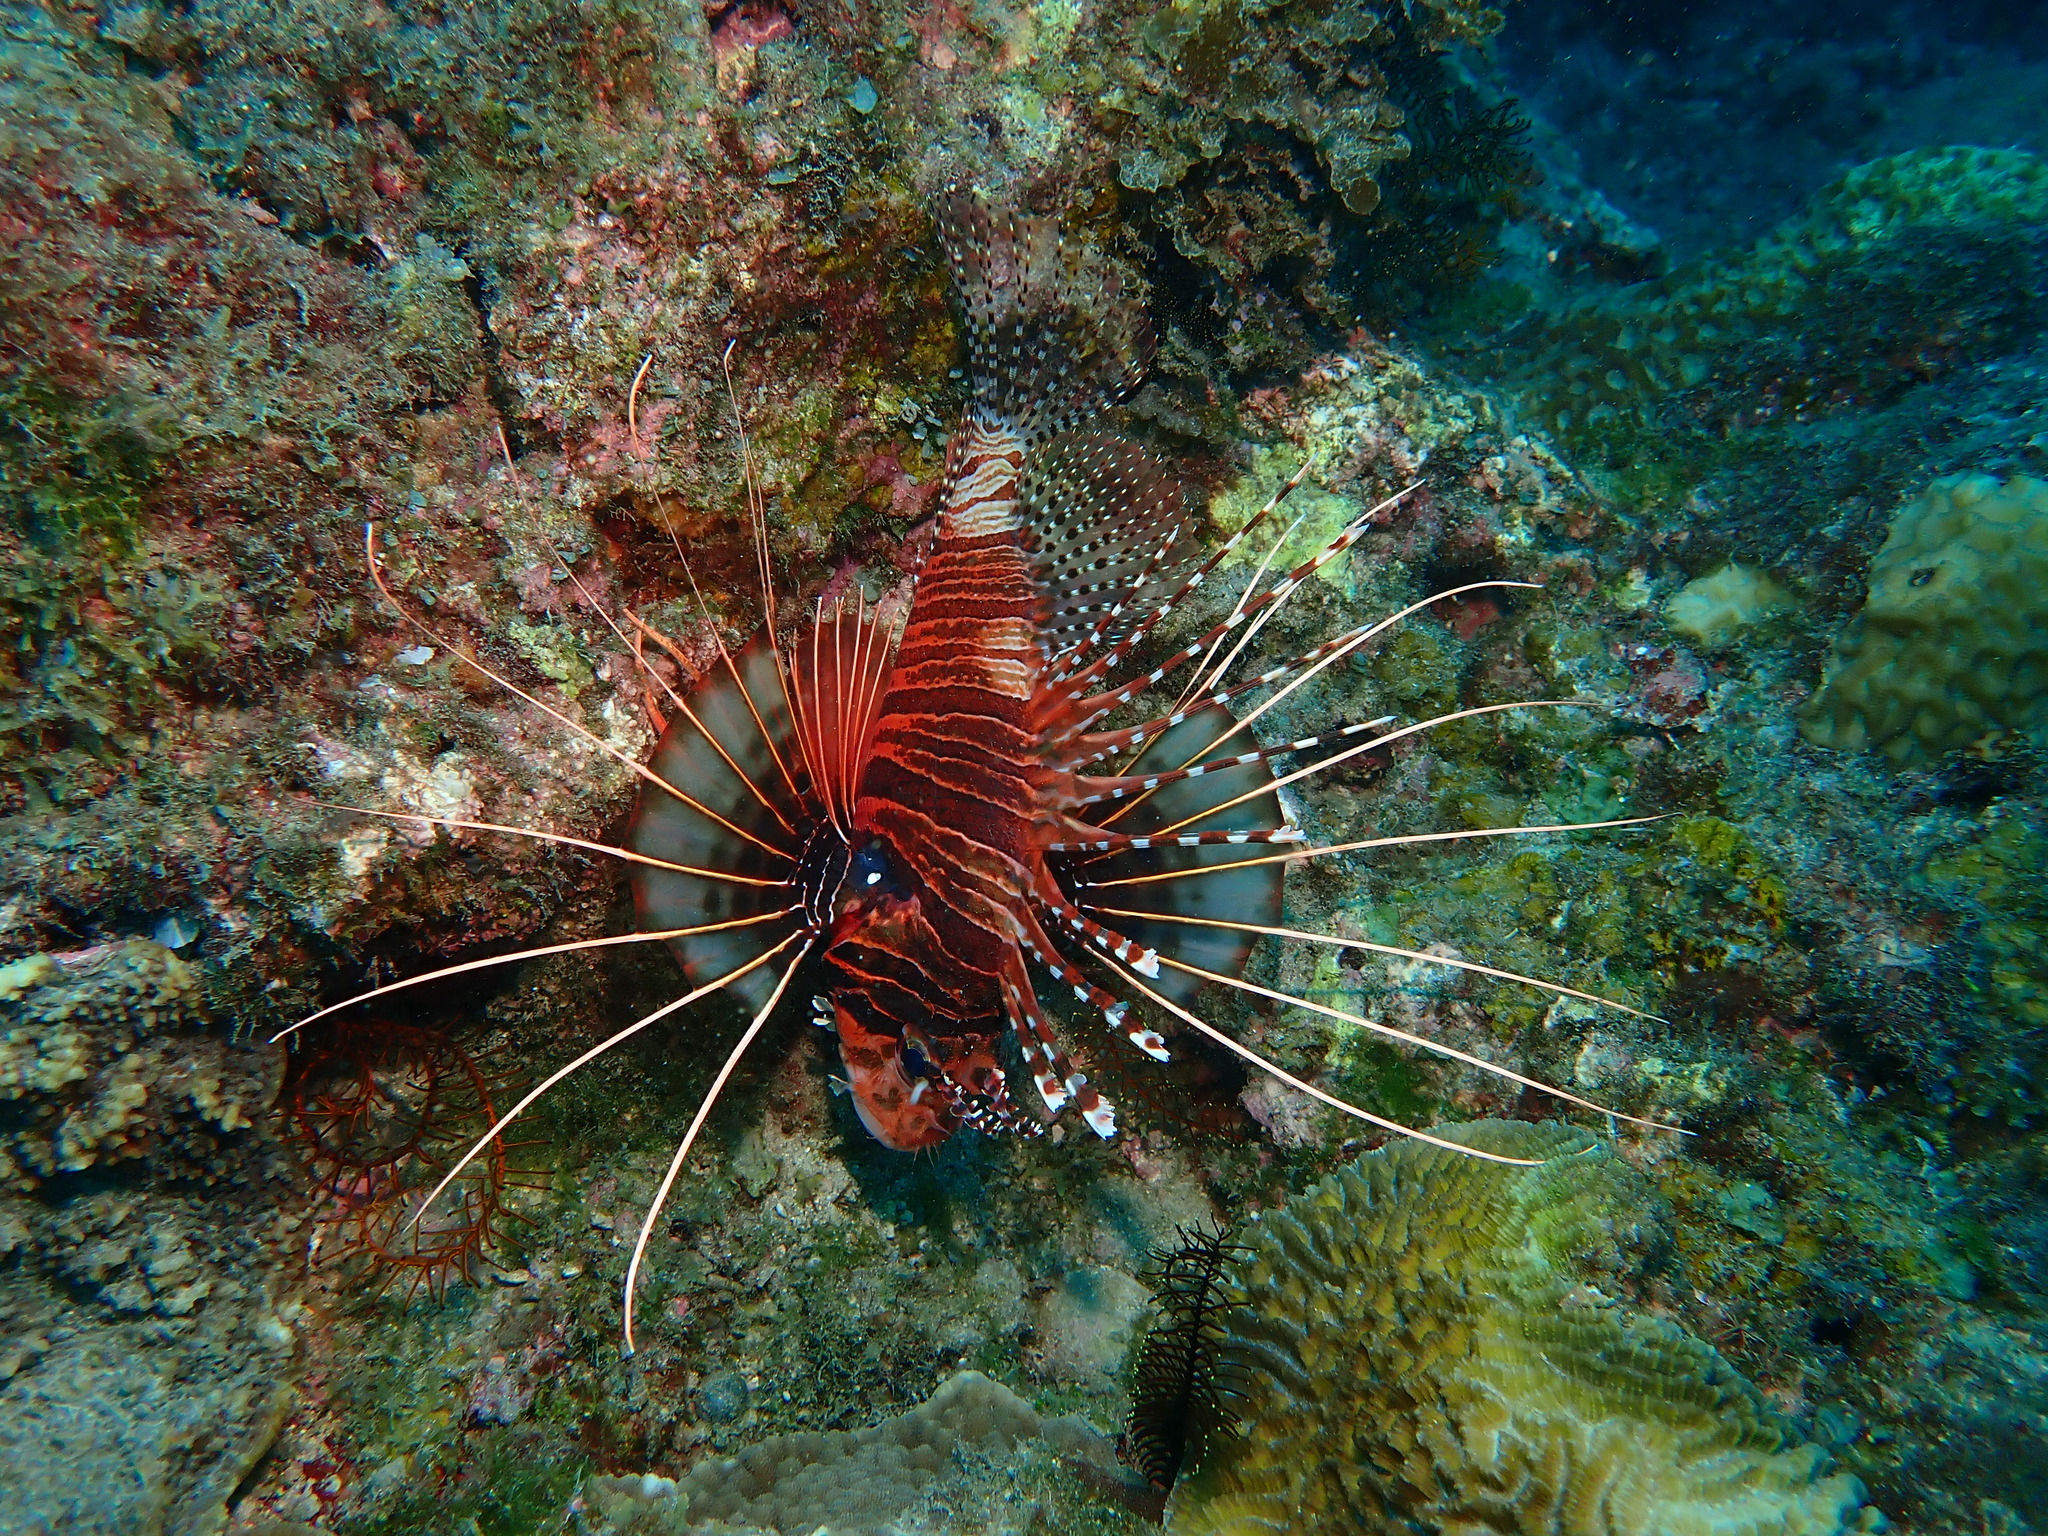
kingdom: Animalia
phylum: Chordata
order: Scorpaeniformes
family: Scorpaenidae
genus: Pterois
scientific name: Pterois antennata
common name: Spotfin lionfish
